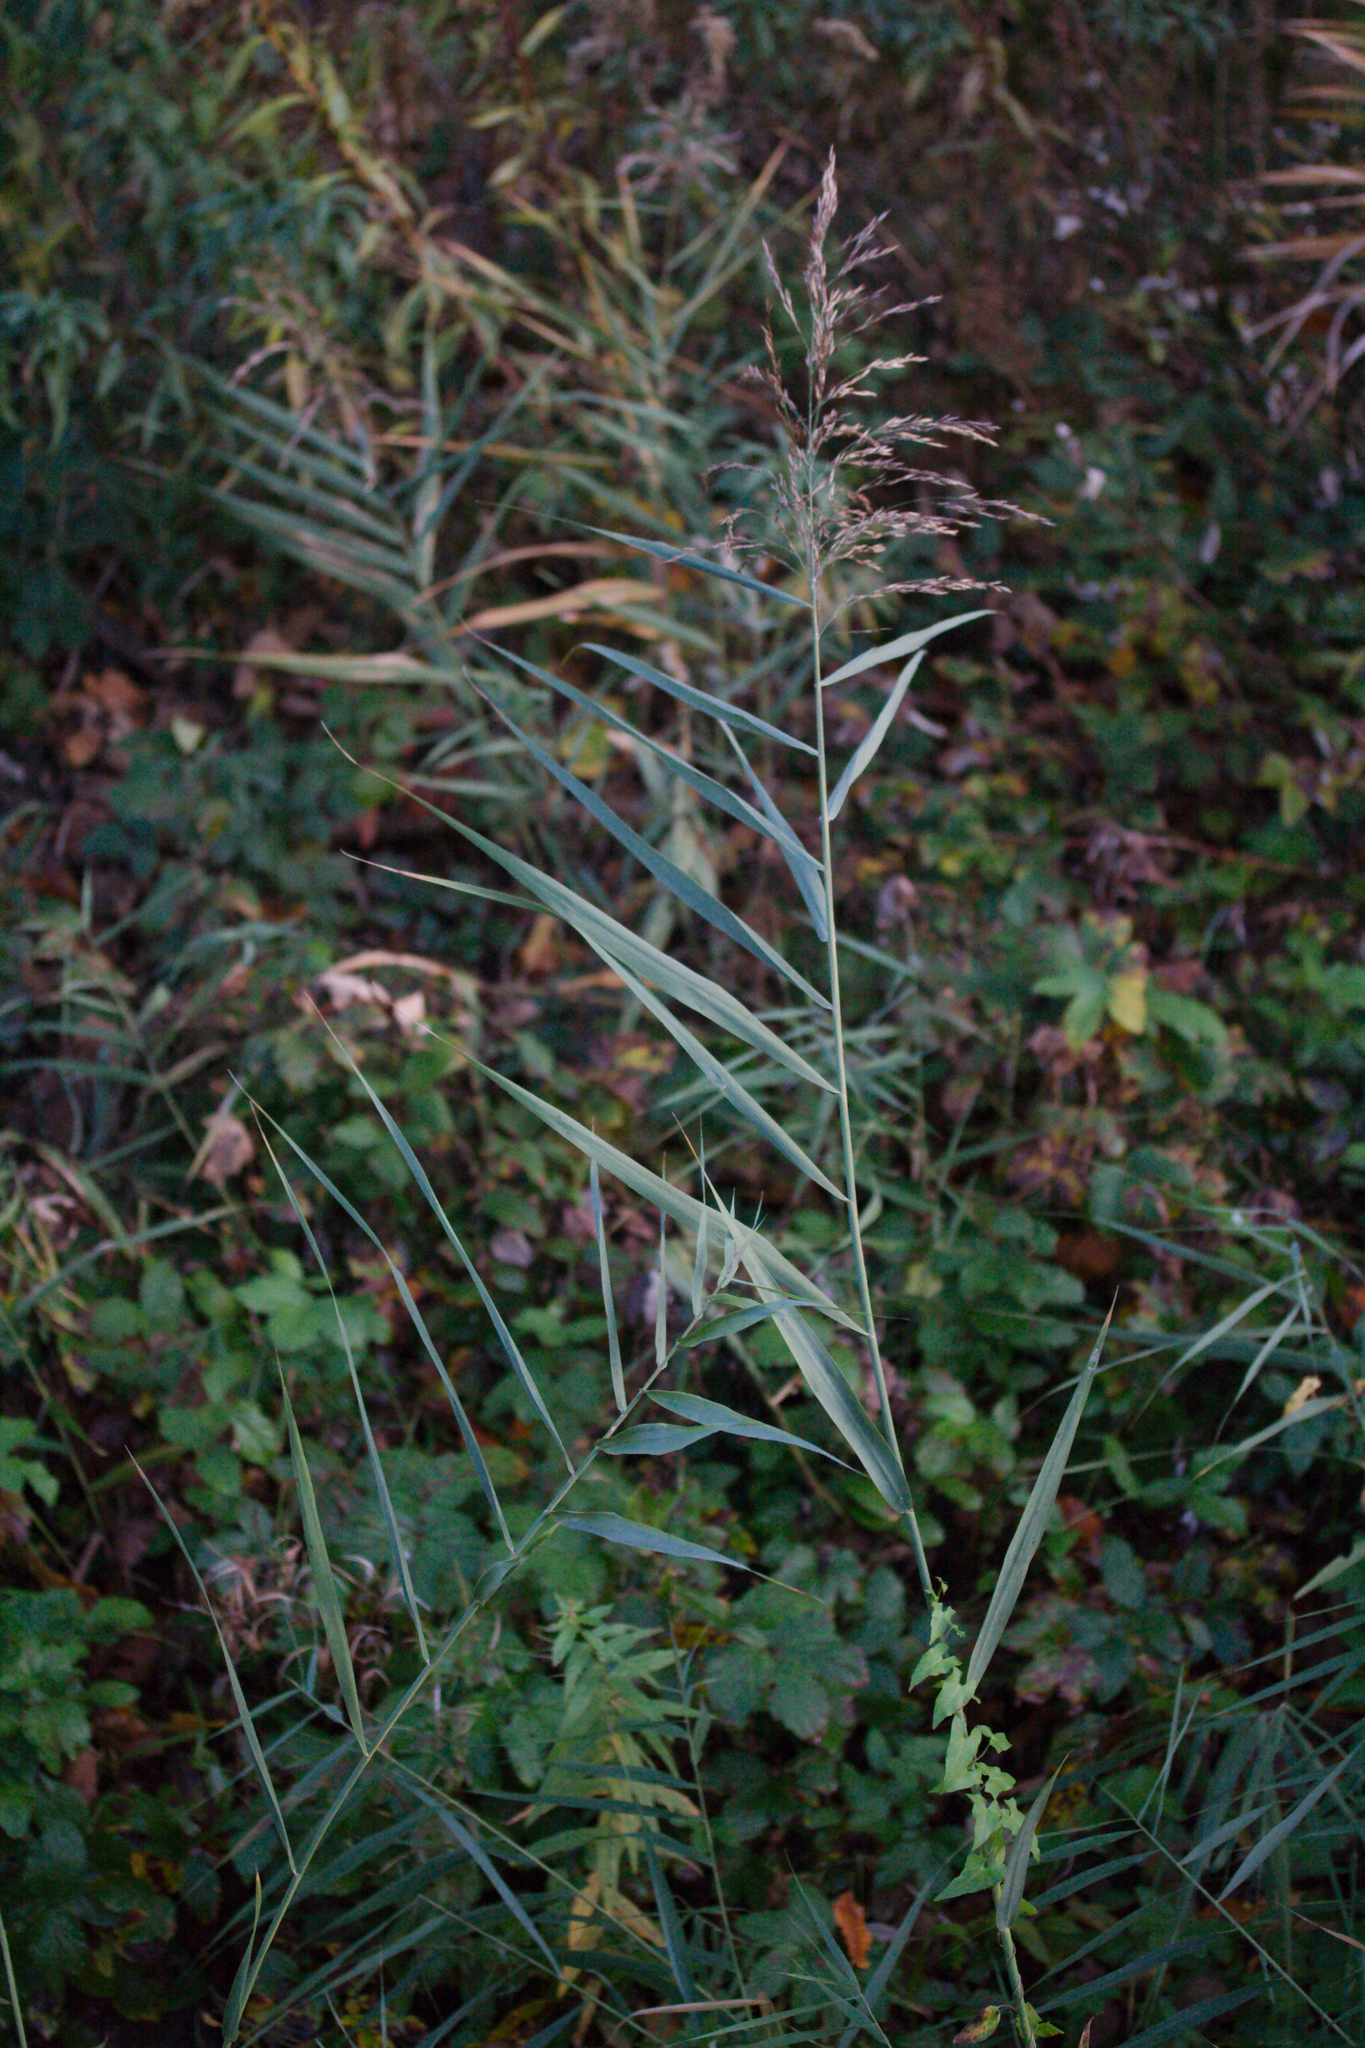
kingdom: Plantae
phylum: Tracheophyta
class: Liliopsida
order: Poales
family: Poaceae
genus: Phragmites
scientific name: Phragmites australis
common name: Common reed
